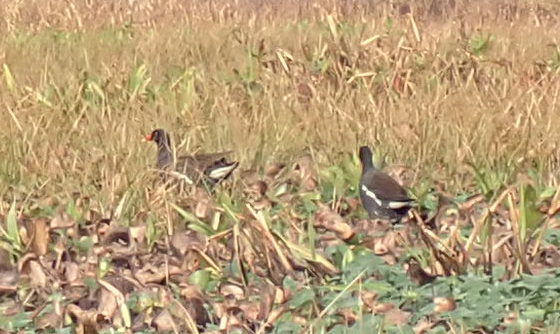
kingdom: Animalia
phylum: Chordata
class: Aves
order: Gruiformes
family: Rallidae
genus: Gallinula
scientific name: Gallinula chloropus
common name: Common moorhen
